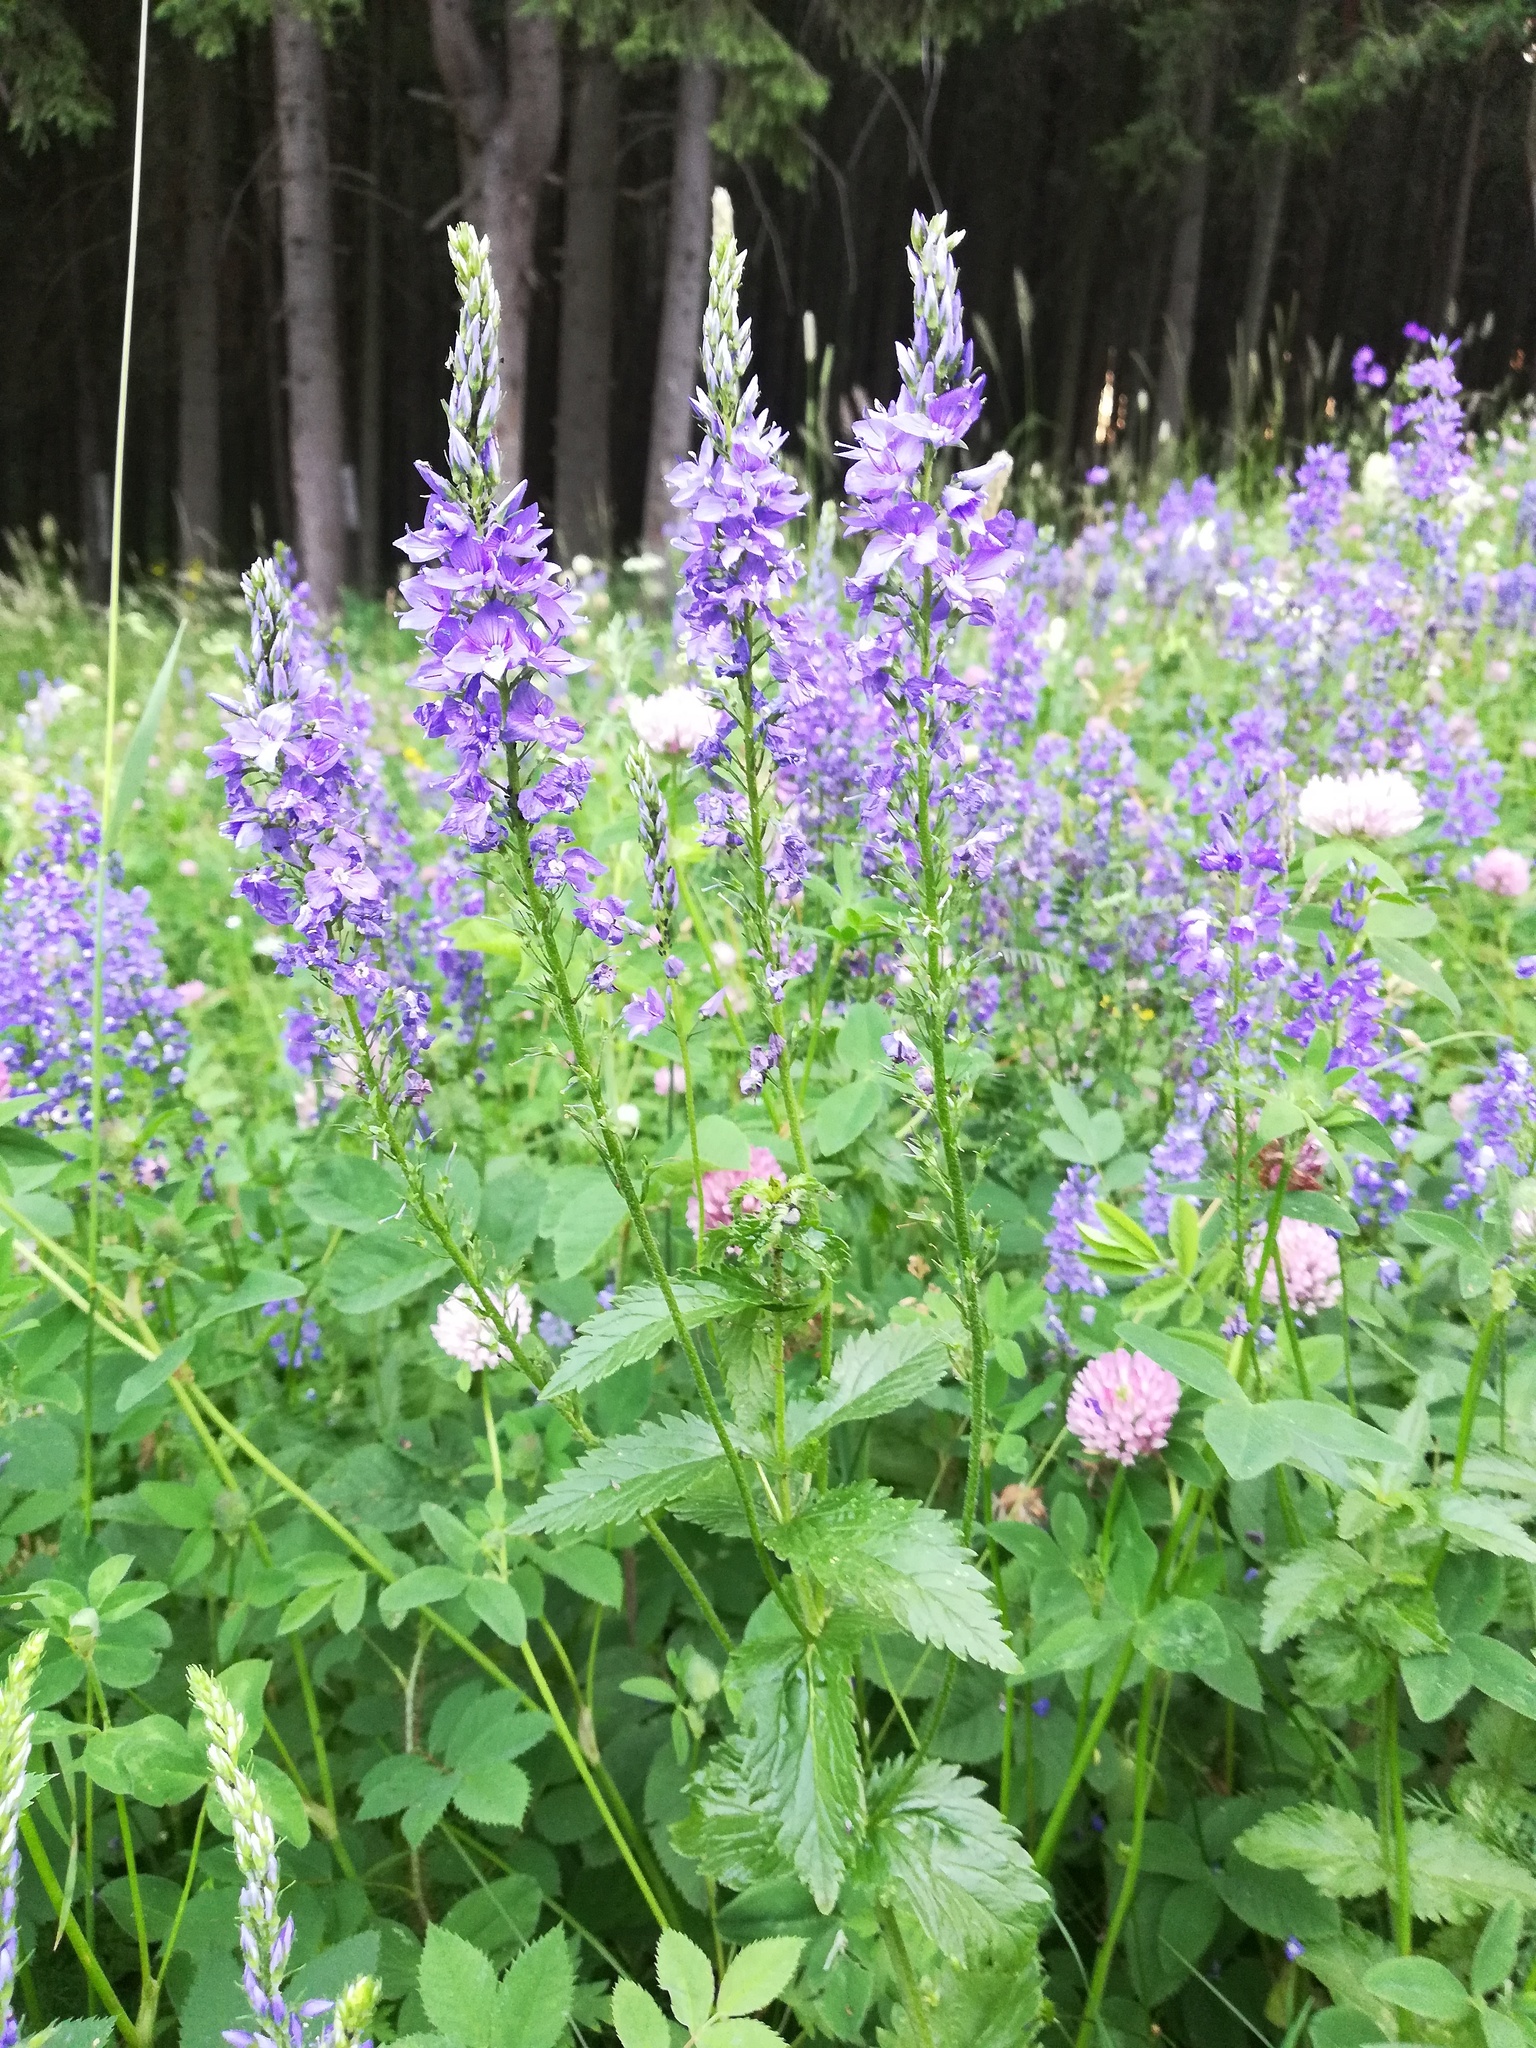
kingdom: Plantae
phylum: Tracheophyta
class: Magnoliopsida
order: Lamiales
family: Plantaginaceae
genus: Veronica
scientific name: Veronica teucrium
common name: Large speedwell
